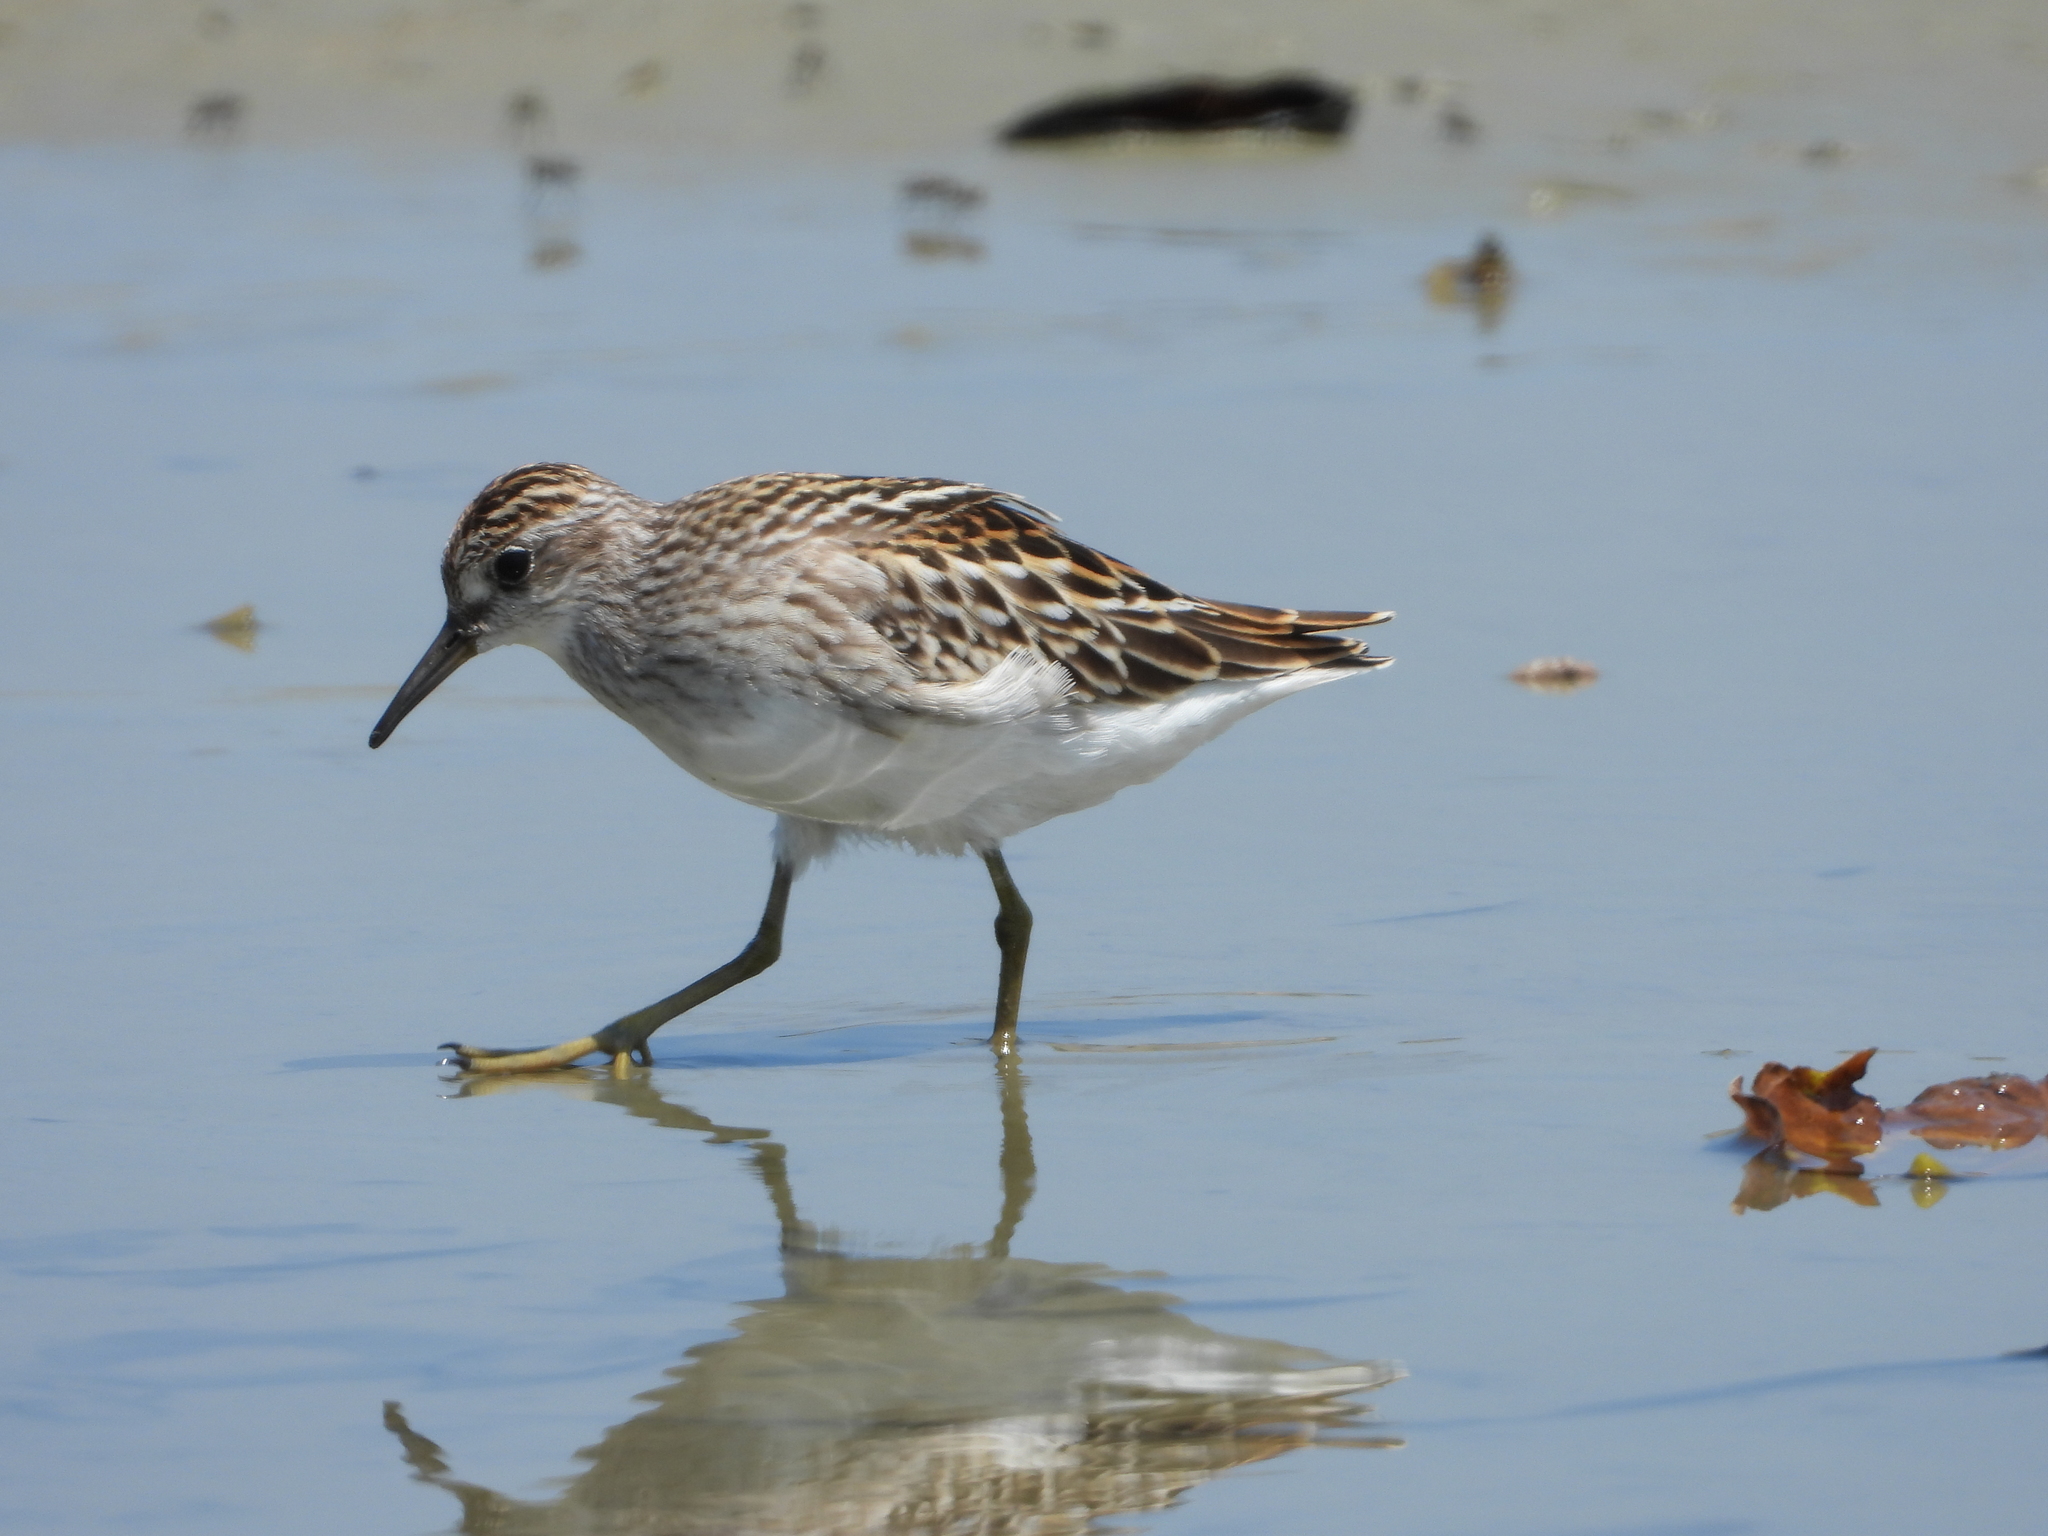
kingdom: Animalia
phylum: Chordata
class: Aves
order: Charadriiformes
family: Scolopacidae
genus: Calidris
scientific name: Calidris subminuta
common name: Long-toed stint
